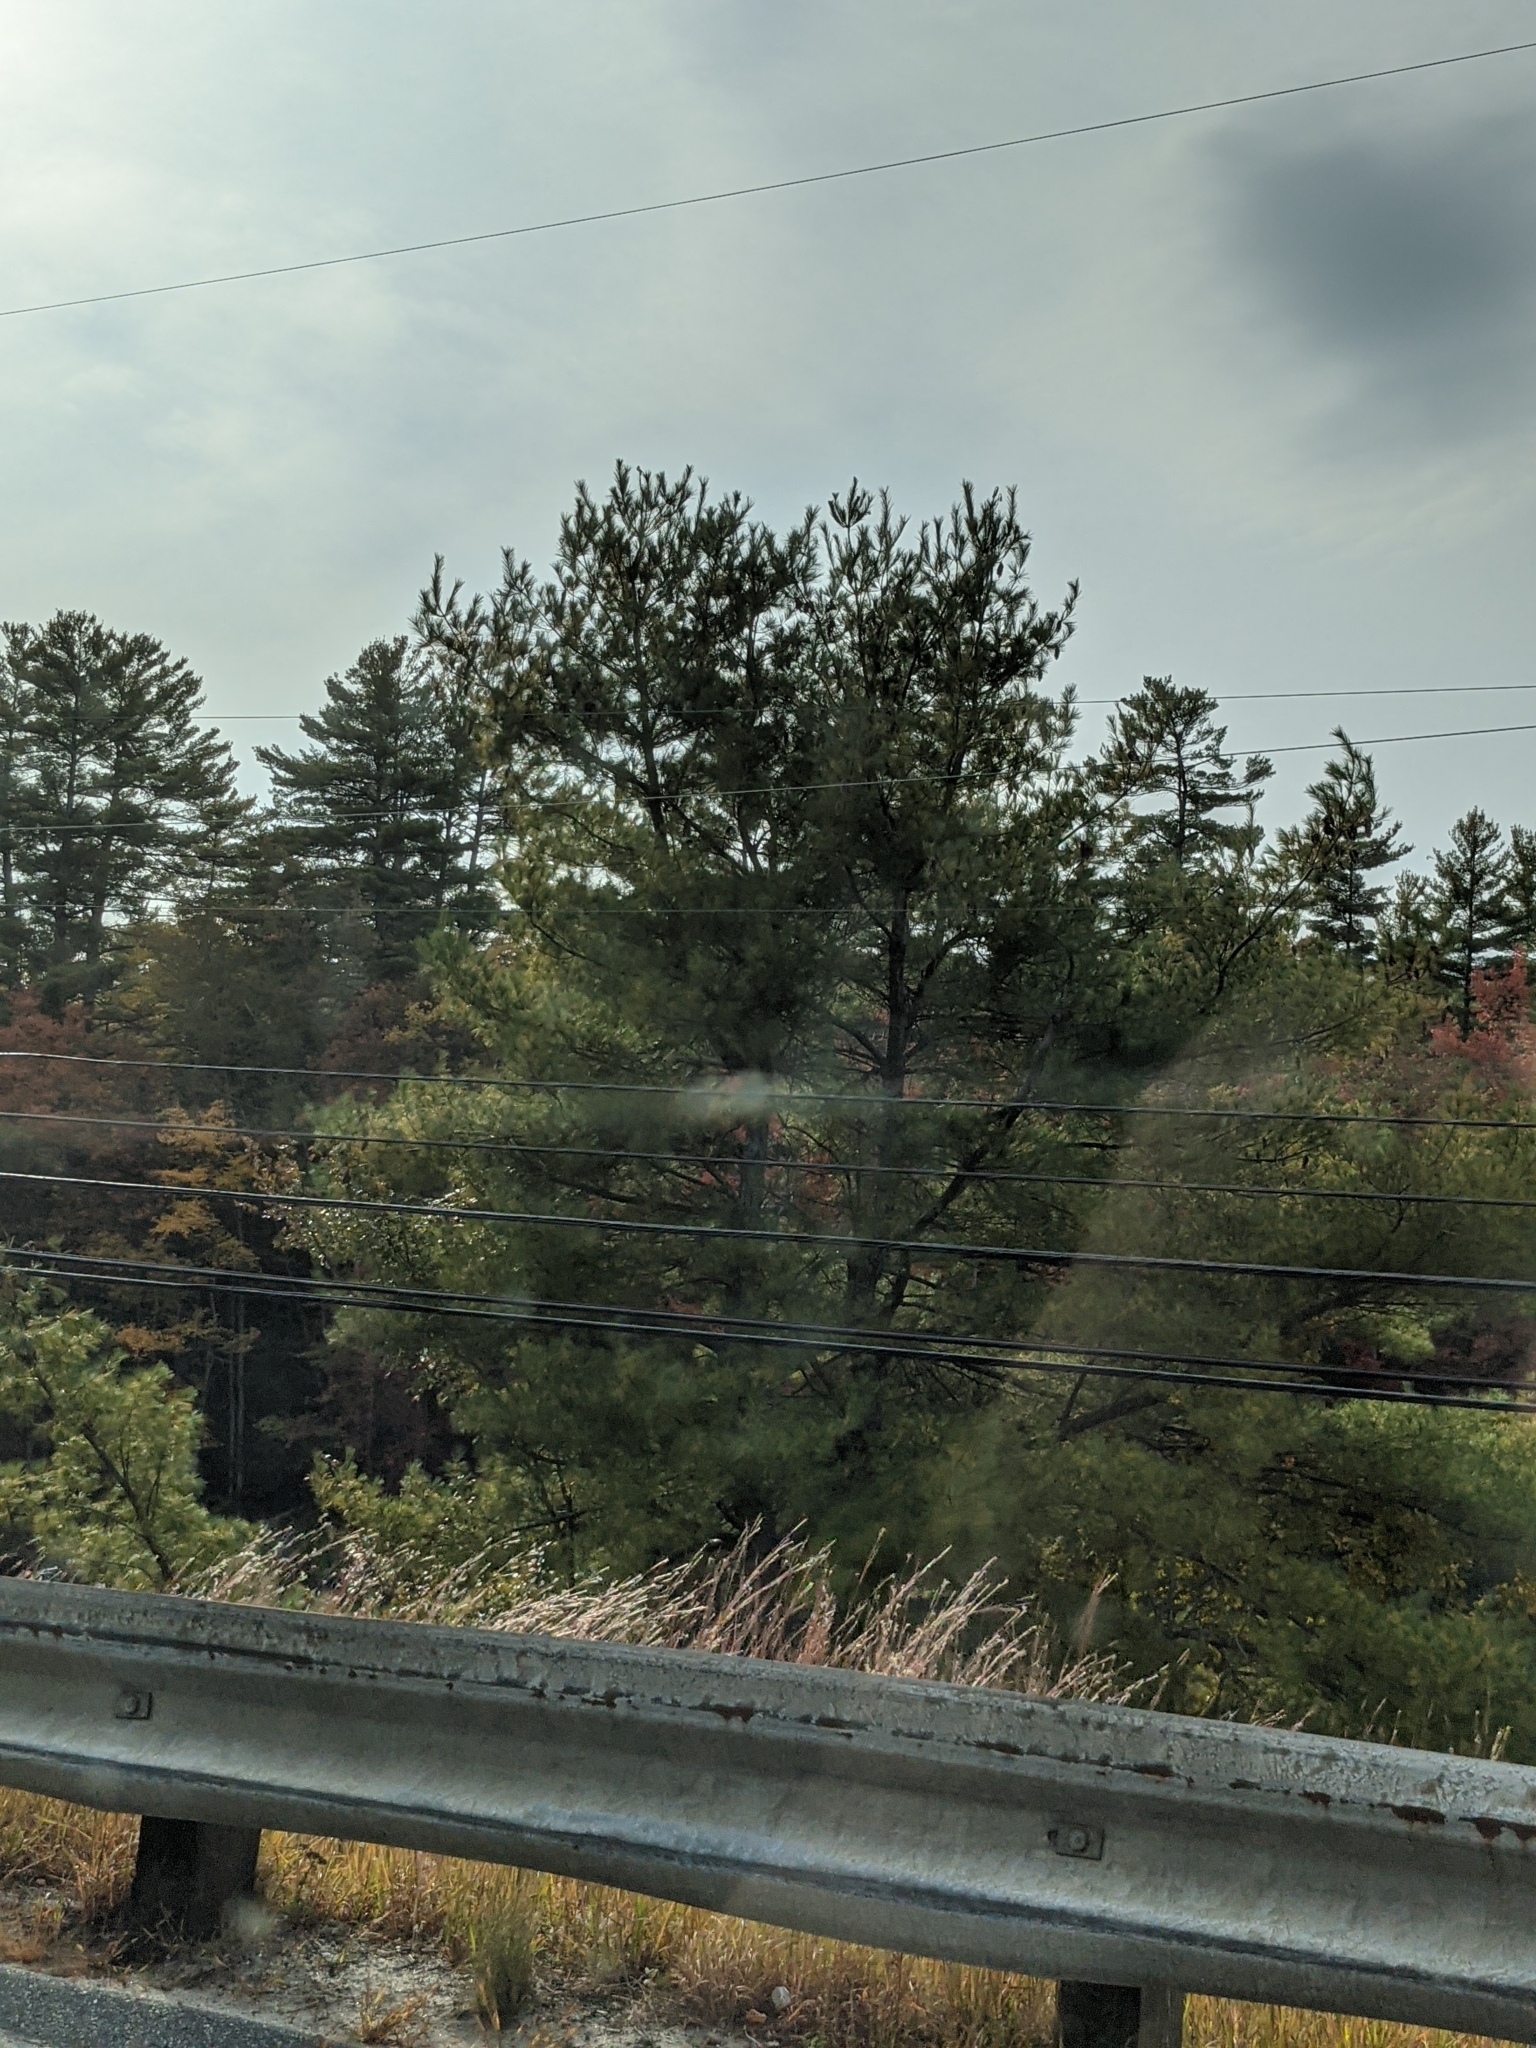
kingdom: Plantae
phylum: Tracheophyta
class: Pinopsida
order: Pinales
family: Pinaceae
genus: Pinus
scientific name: Pinus strobus
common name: Weymouth pine
